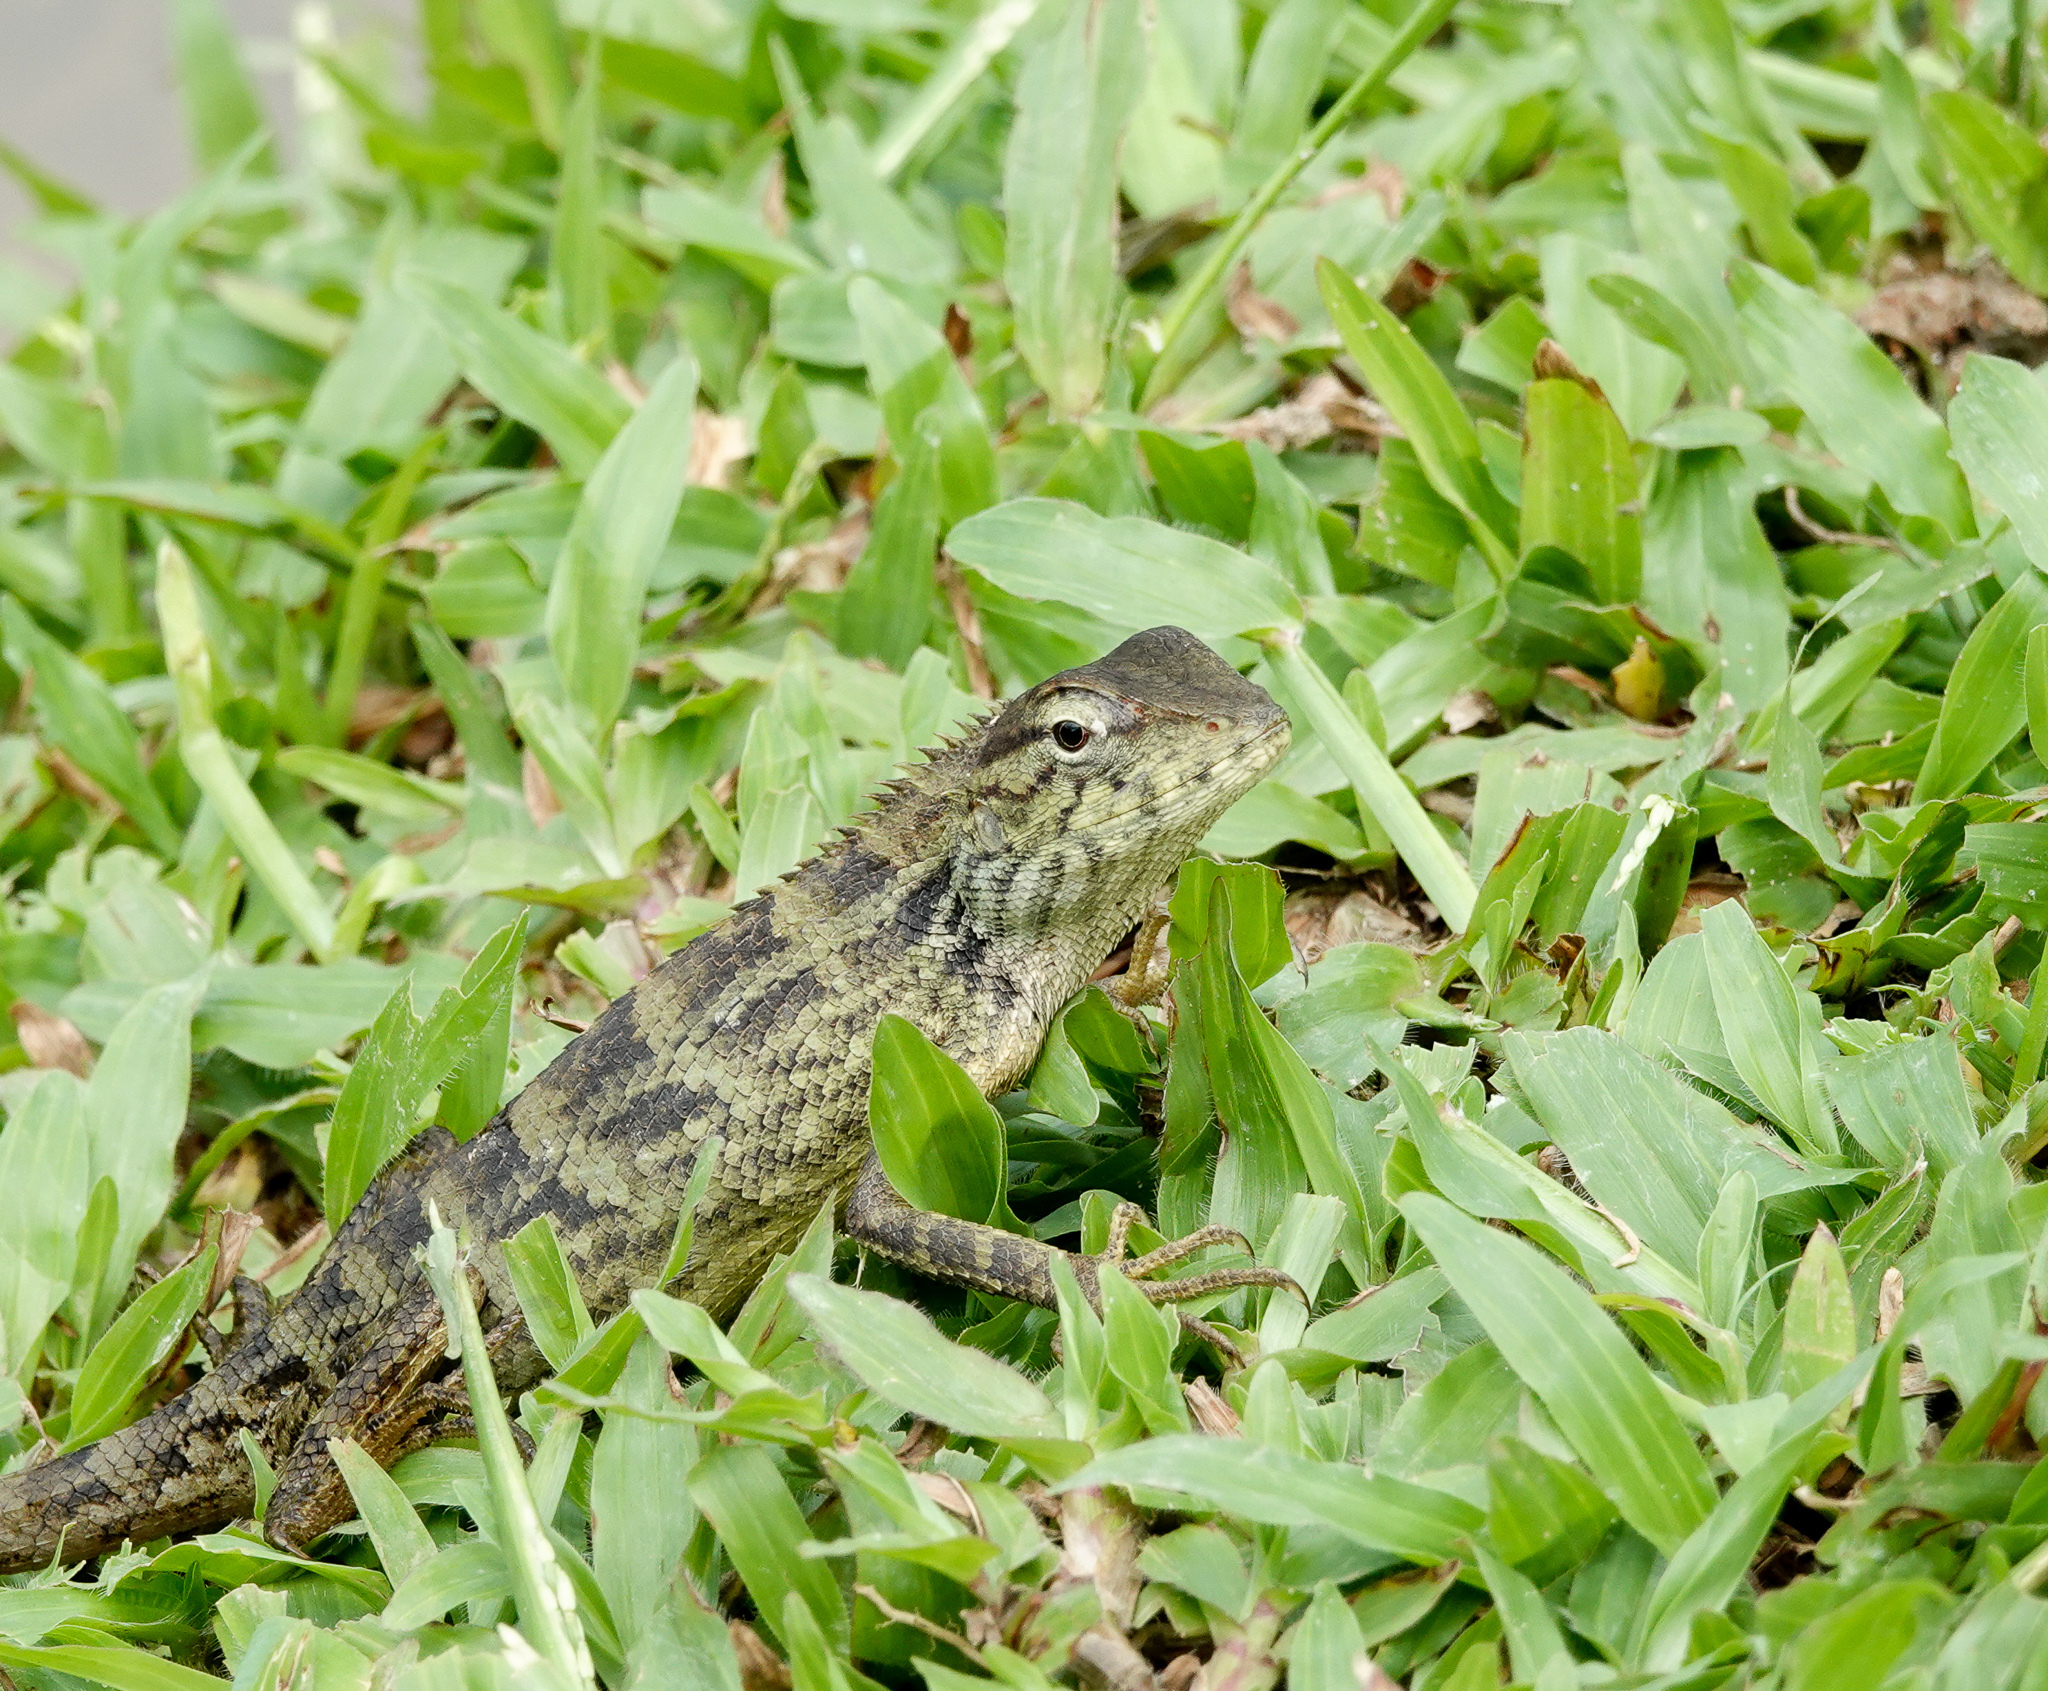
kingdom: Animalia
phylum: Chordata
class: Squamata
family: Agamidae
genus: Calotes
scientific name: Calotes versicolor
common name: Oriental garden lizard
